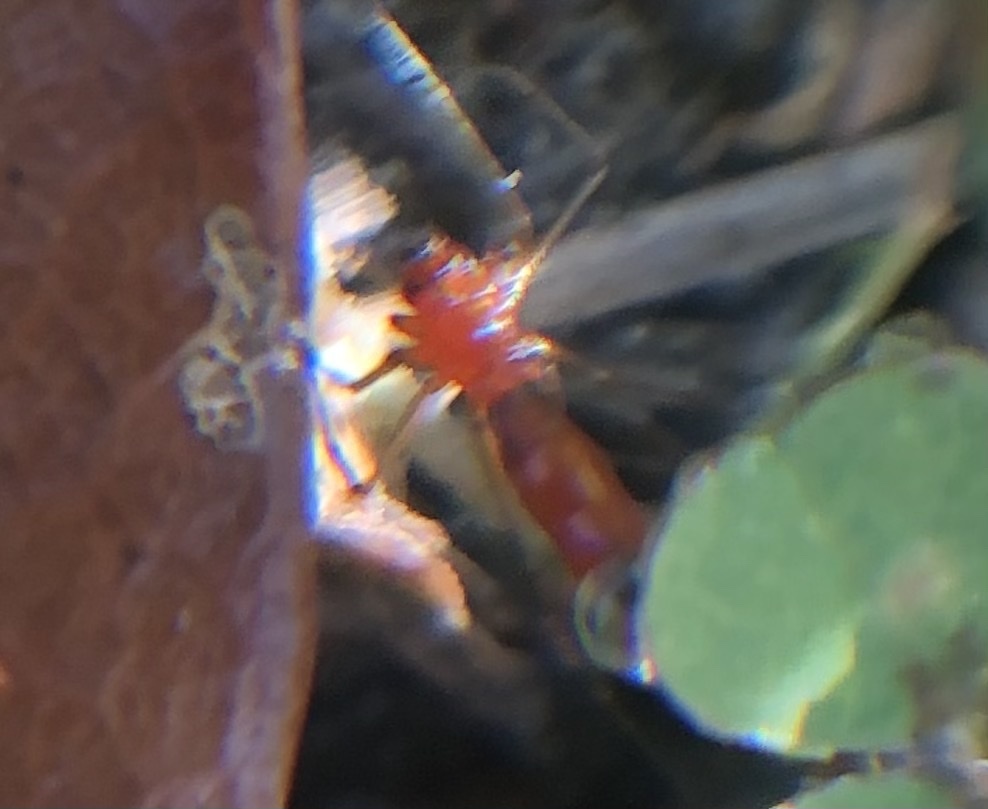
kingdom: Animalia
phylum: Arthropoda
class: Arachnida
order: Araneae
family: Linyphiidae
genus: Florinda
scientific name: Florinda coccinea
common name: Black-tailed red sheetweaver
